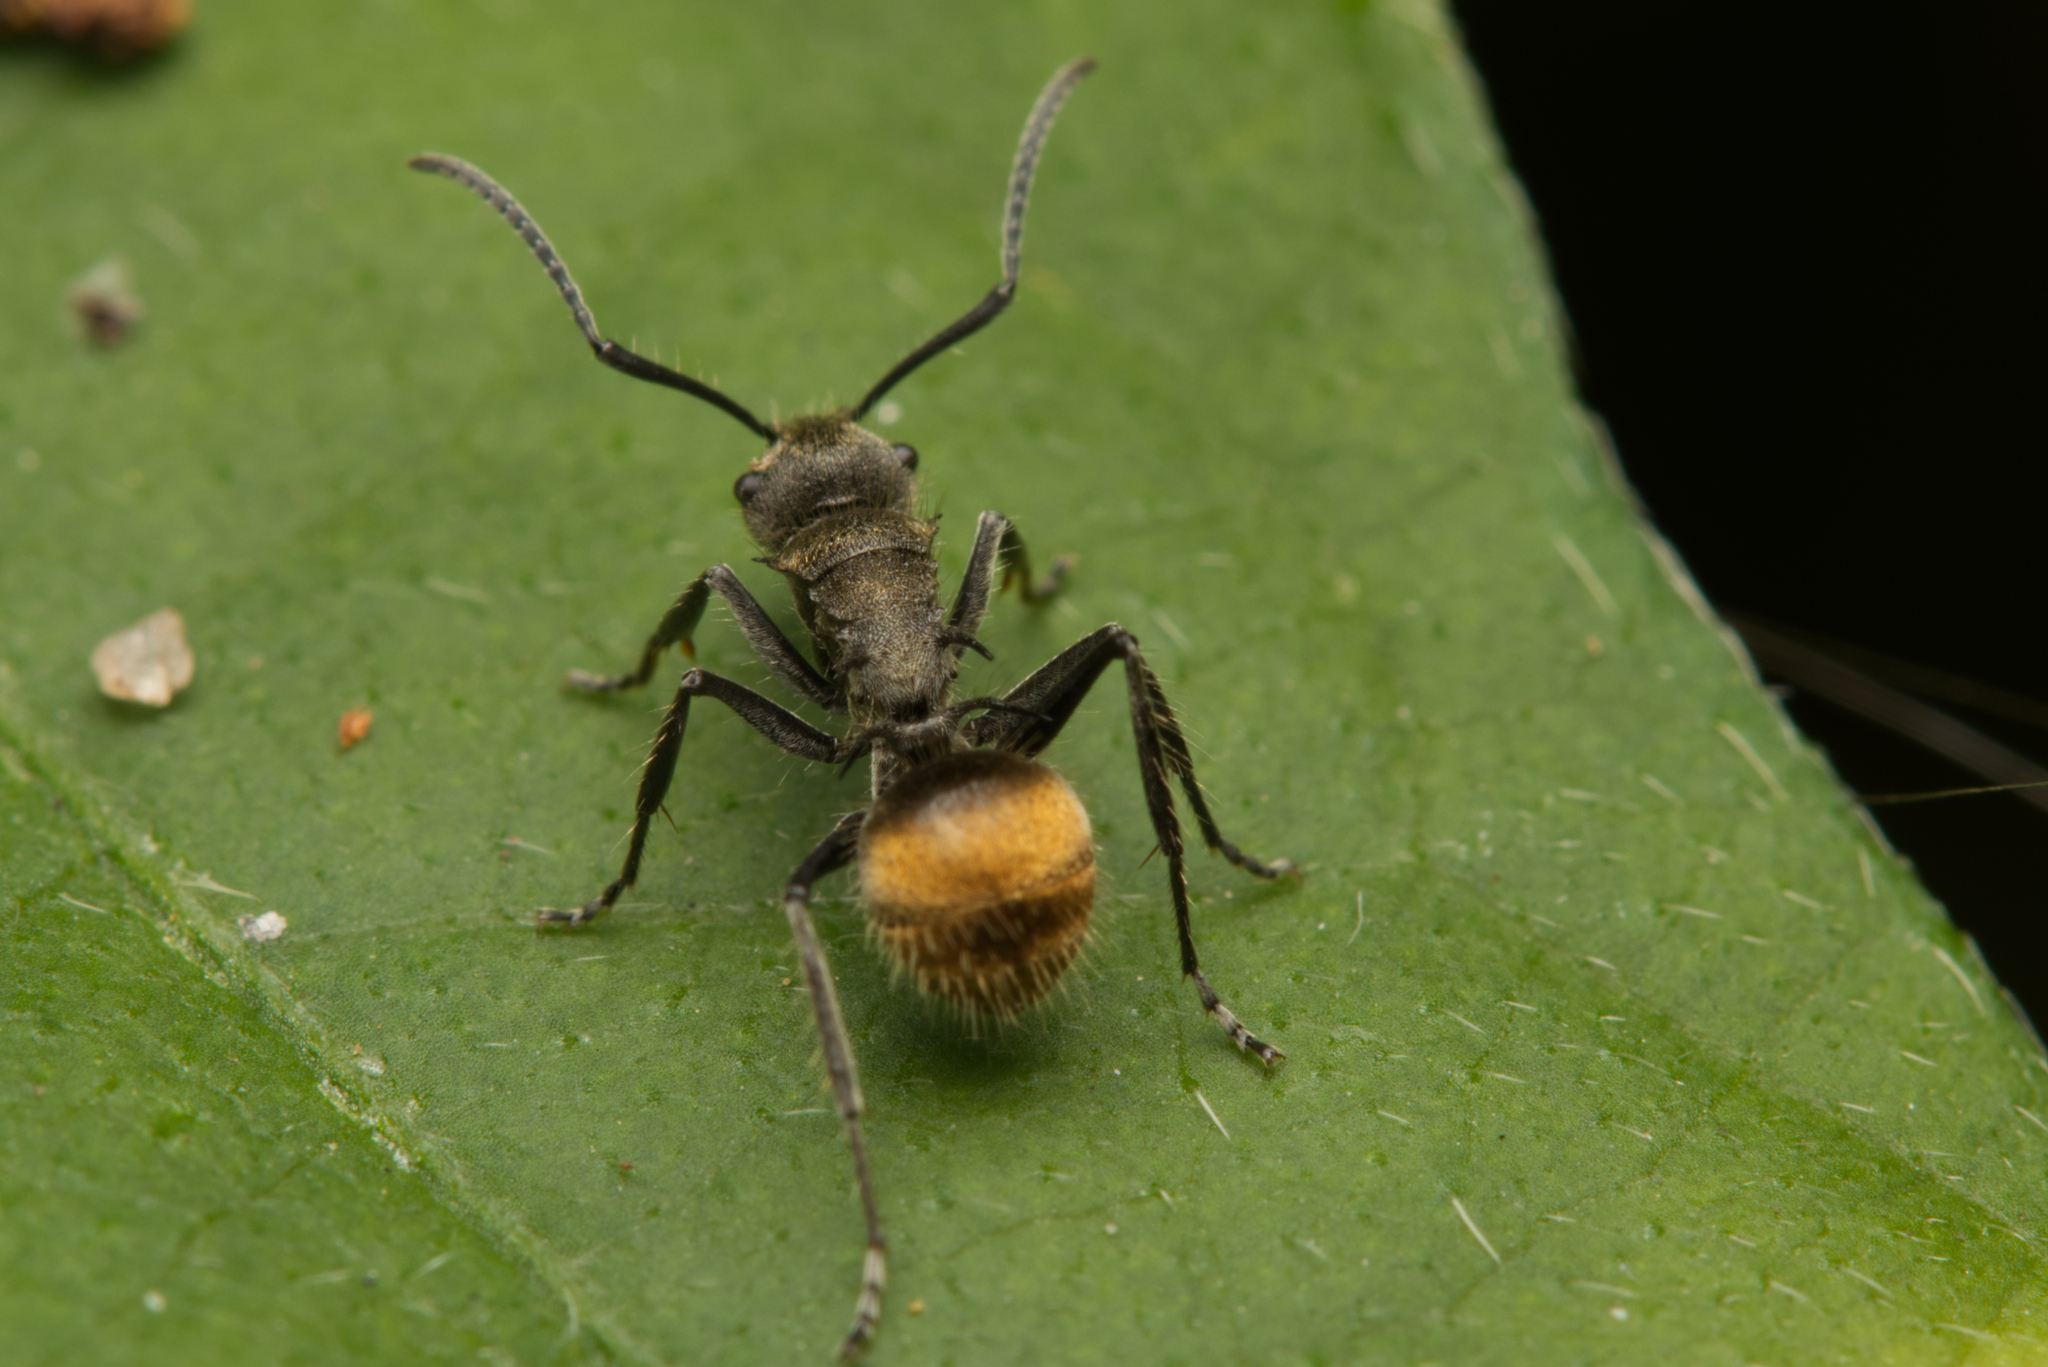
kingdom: Animalia
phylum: Arthropoda
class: Insecta
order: Hymenoptera
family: Formicidae
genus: Polyrhachis
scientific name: Polyrhachis aurea
